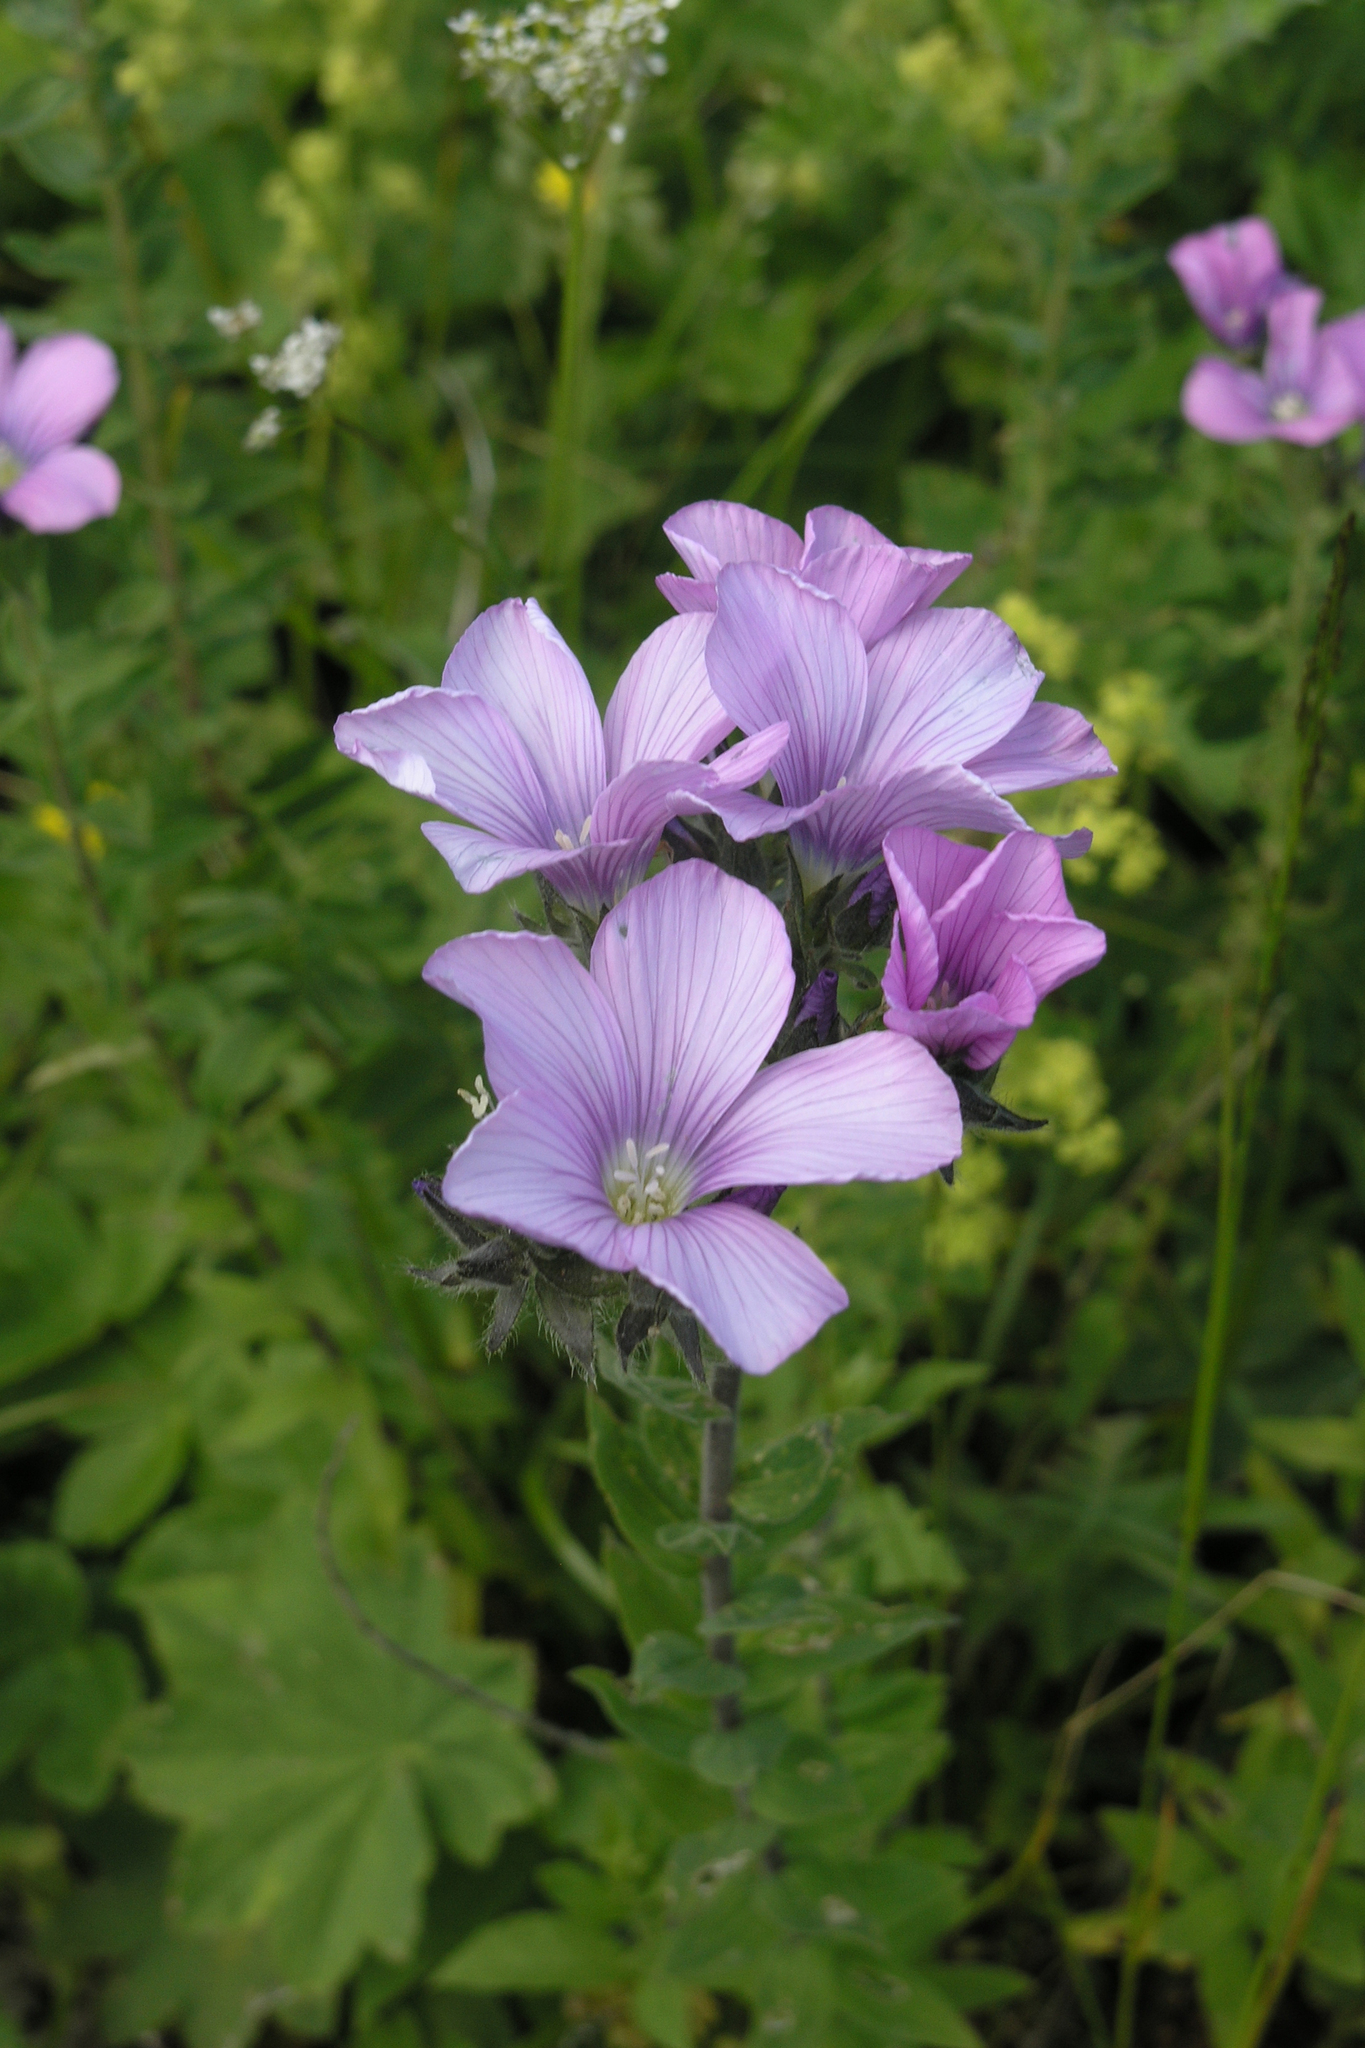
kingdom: Plantae
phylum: Tracheophyta
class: Magnoliopsida
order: Malpighiales
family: Linaceae
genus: Linum
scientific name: Linum hypericifolium
